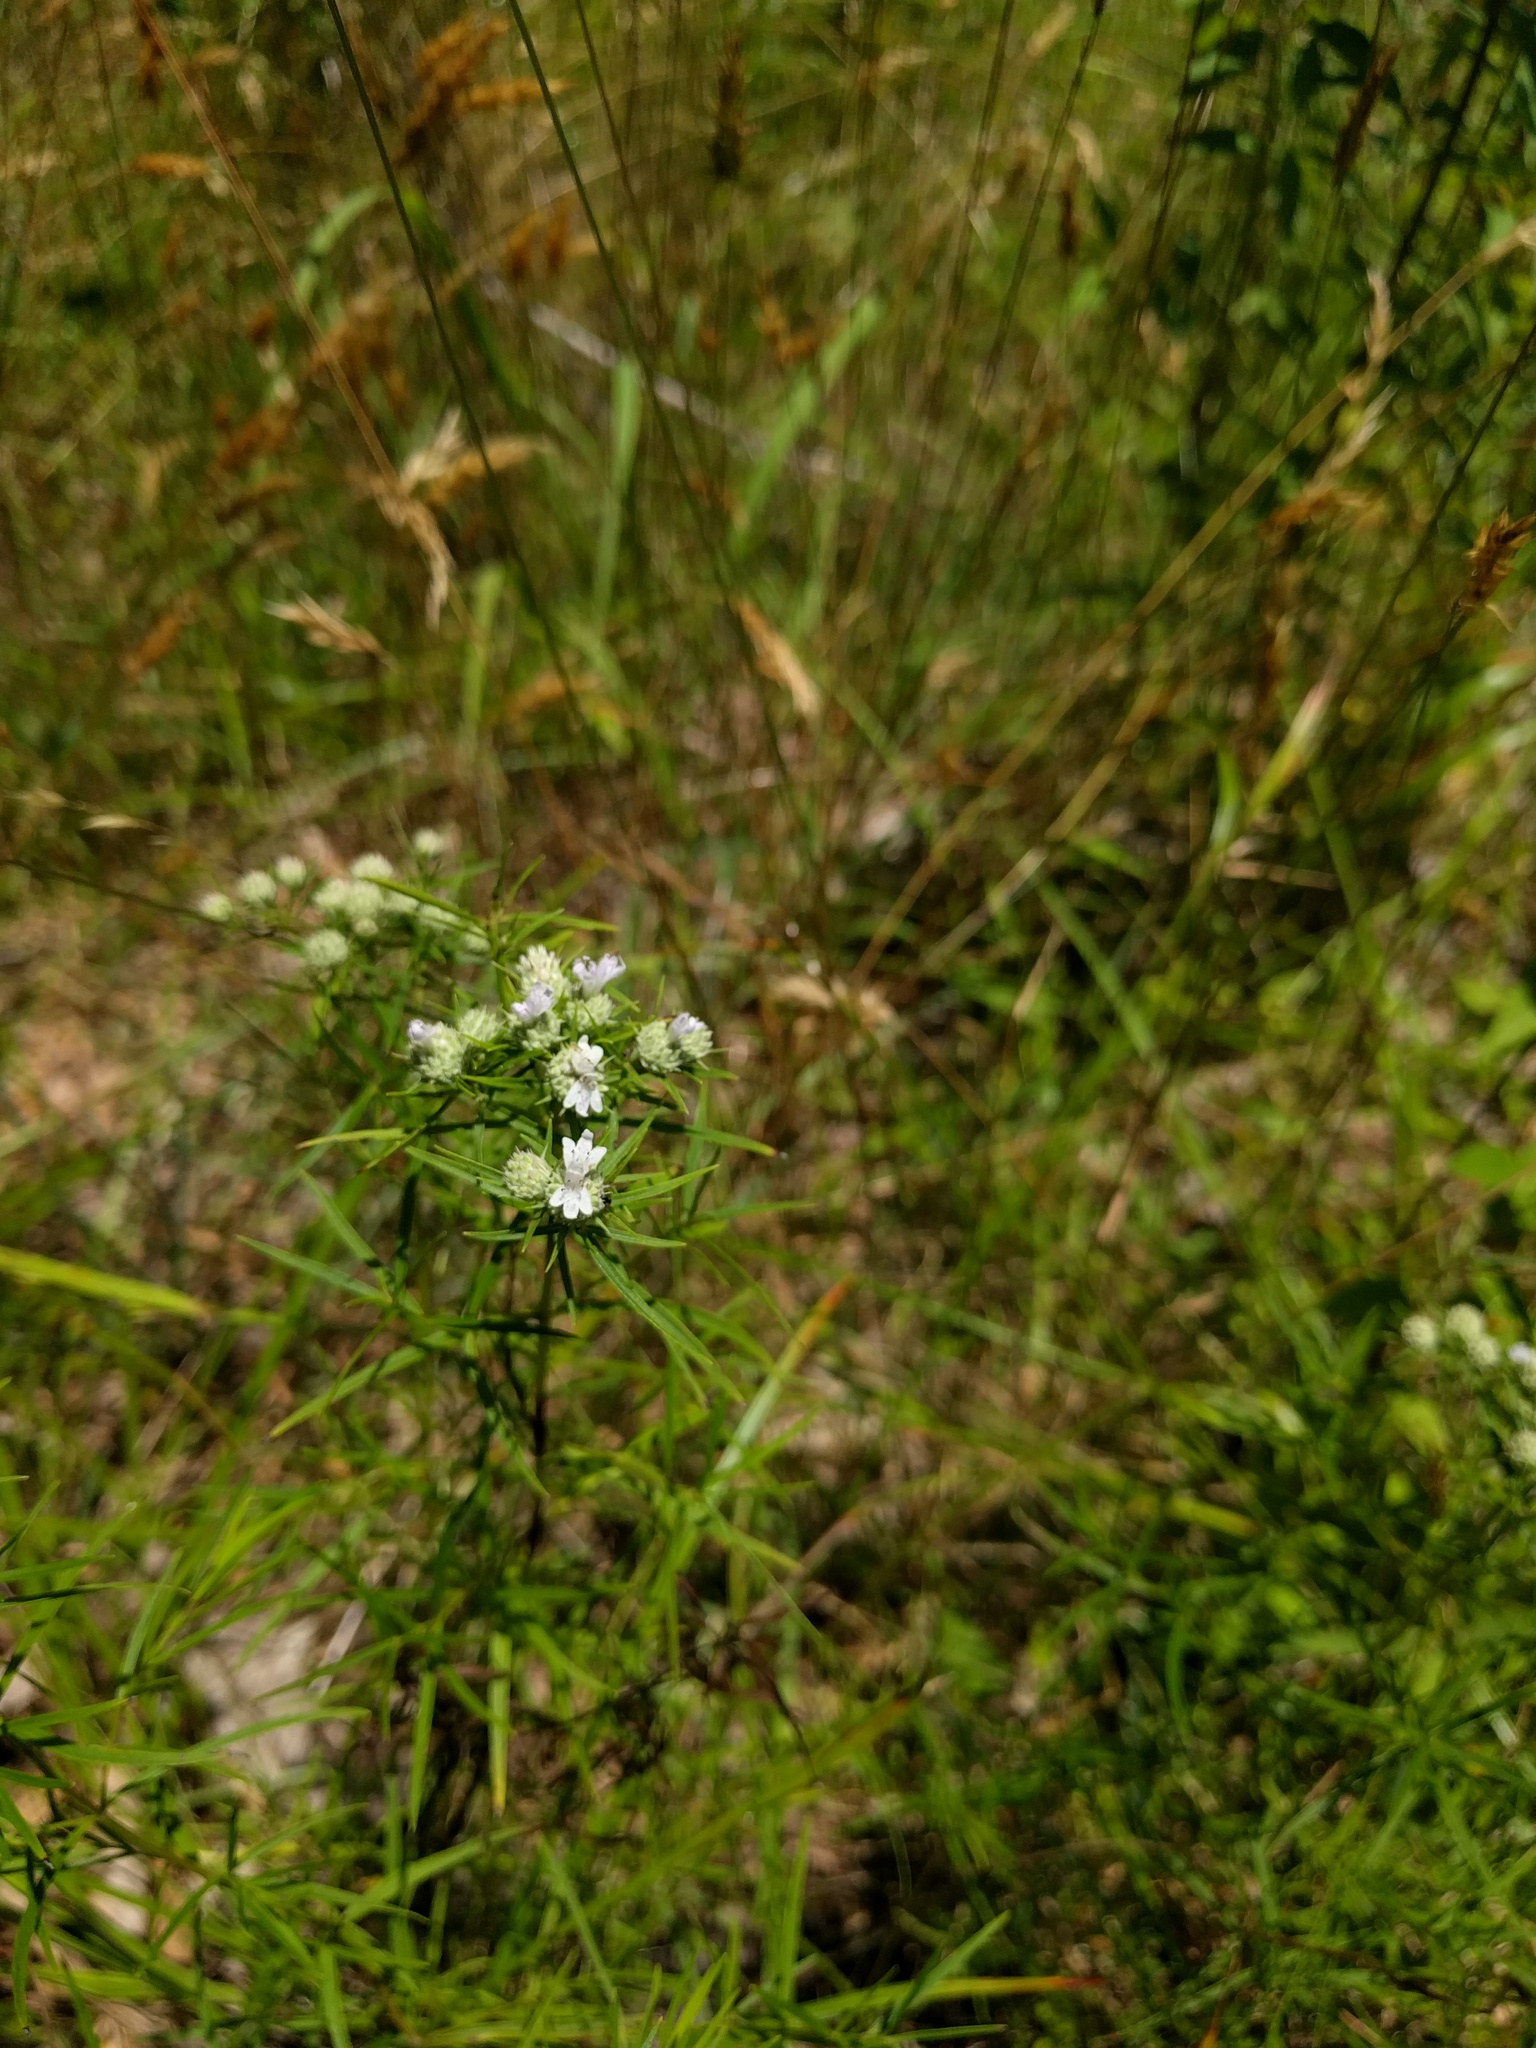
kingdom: Plantae
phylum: Tracheophyta
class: Magnoliopsida
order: Lamiales
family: Lamiaceae
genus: Pycnanthemum
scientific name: Pycnanthemum tenuifolium
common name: Narrow-leaf mountain-mint
